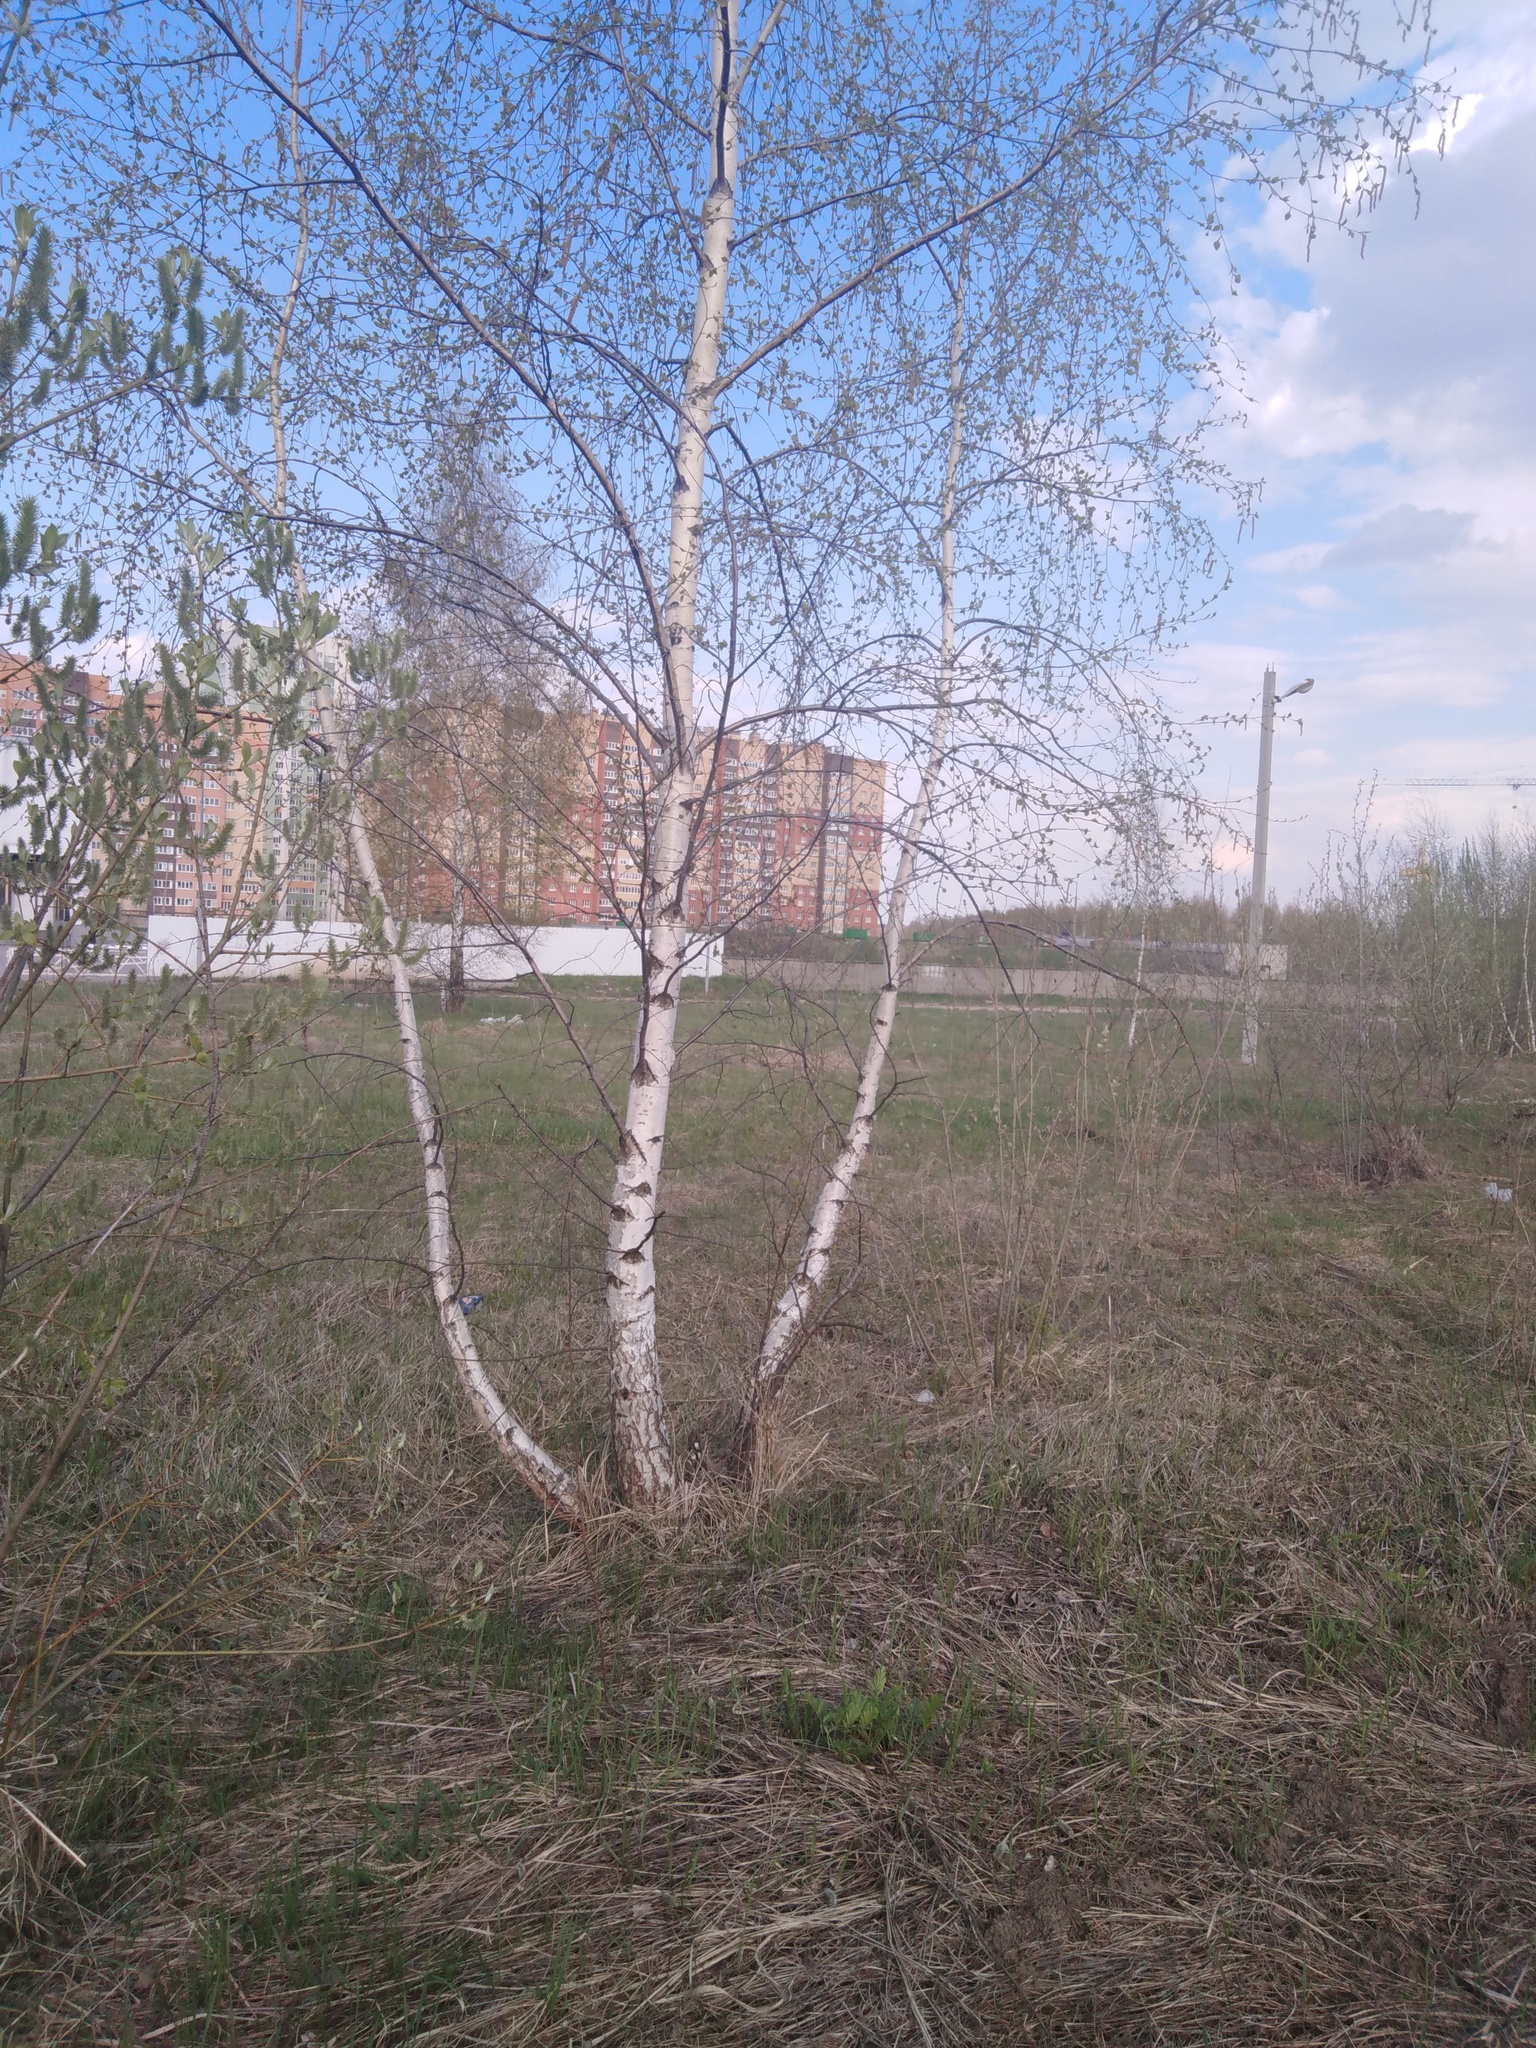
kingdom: Plantae
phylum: Tracheophyta
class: Magnoliopsida
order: Fagales
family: Betulaceae
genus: Betula
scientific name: Betula pendula
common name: Silver birch
